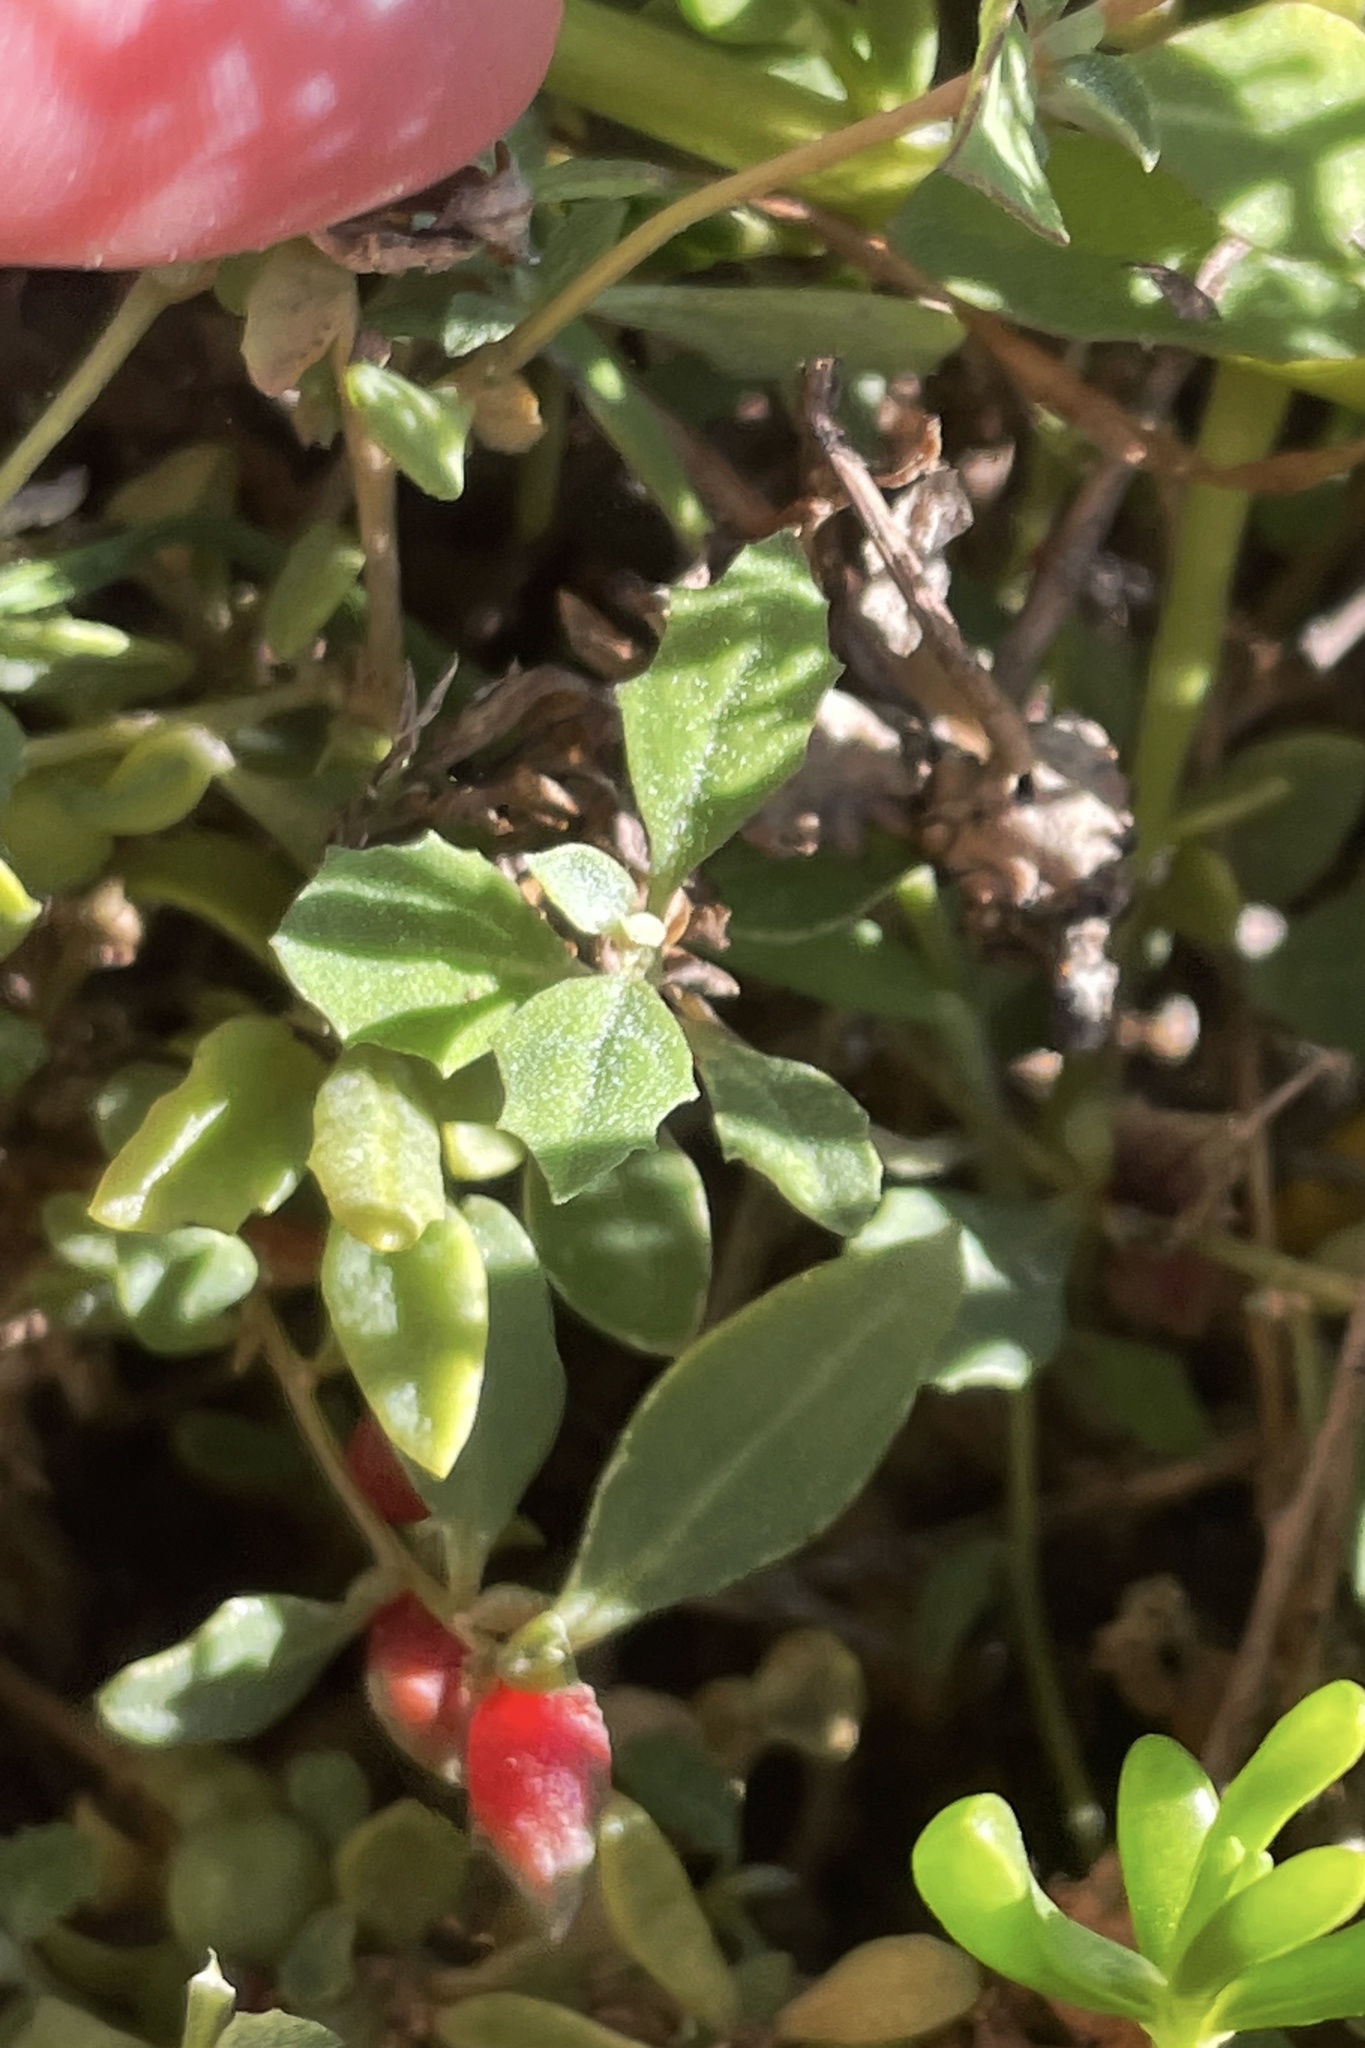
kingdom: Plantae
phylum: Tracheophyta
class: Magnoliopsida
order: Caryophyllales
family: Amaranthaceae
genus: Atriplex
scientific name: Atriplex semibaccata
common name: Australian saltbush
